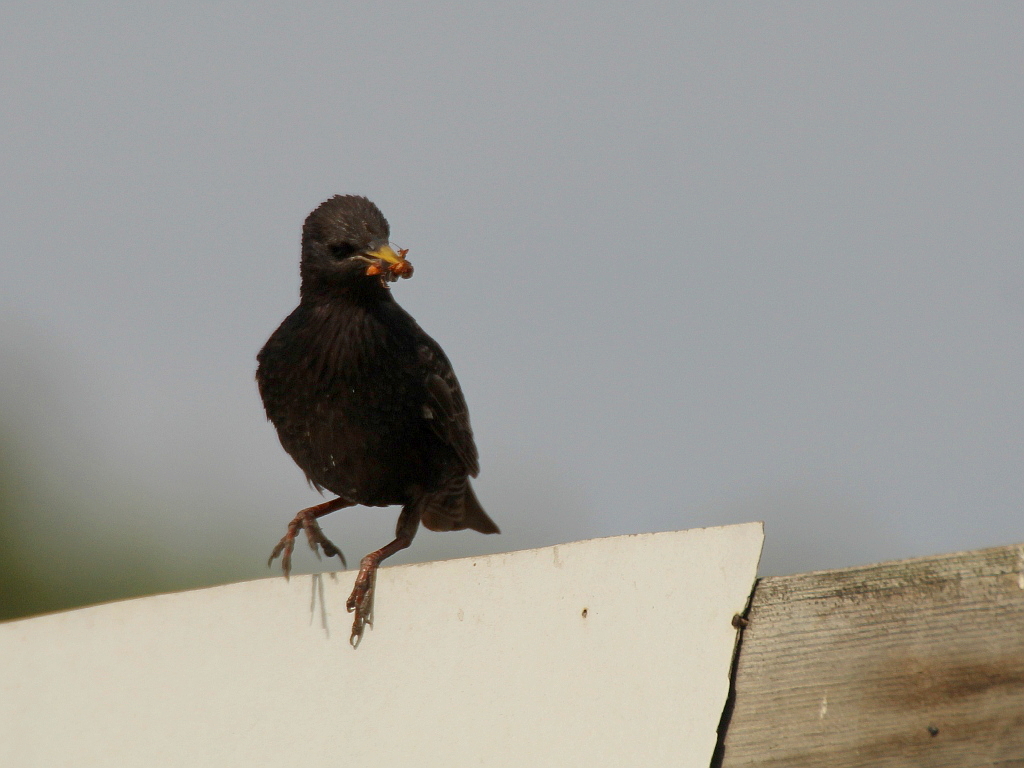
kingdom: Animalia
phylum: Chordata
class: Aves
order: Passeriformes
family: Sturnidae
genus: Sturnus
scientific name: Sturnus vulgaris
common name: Common starling
